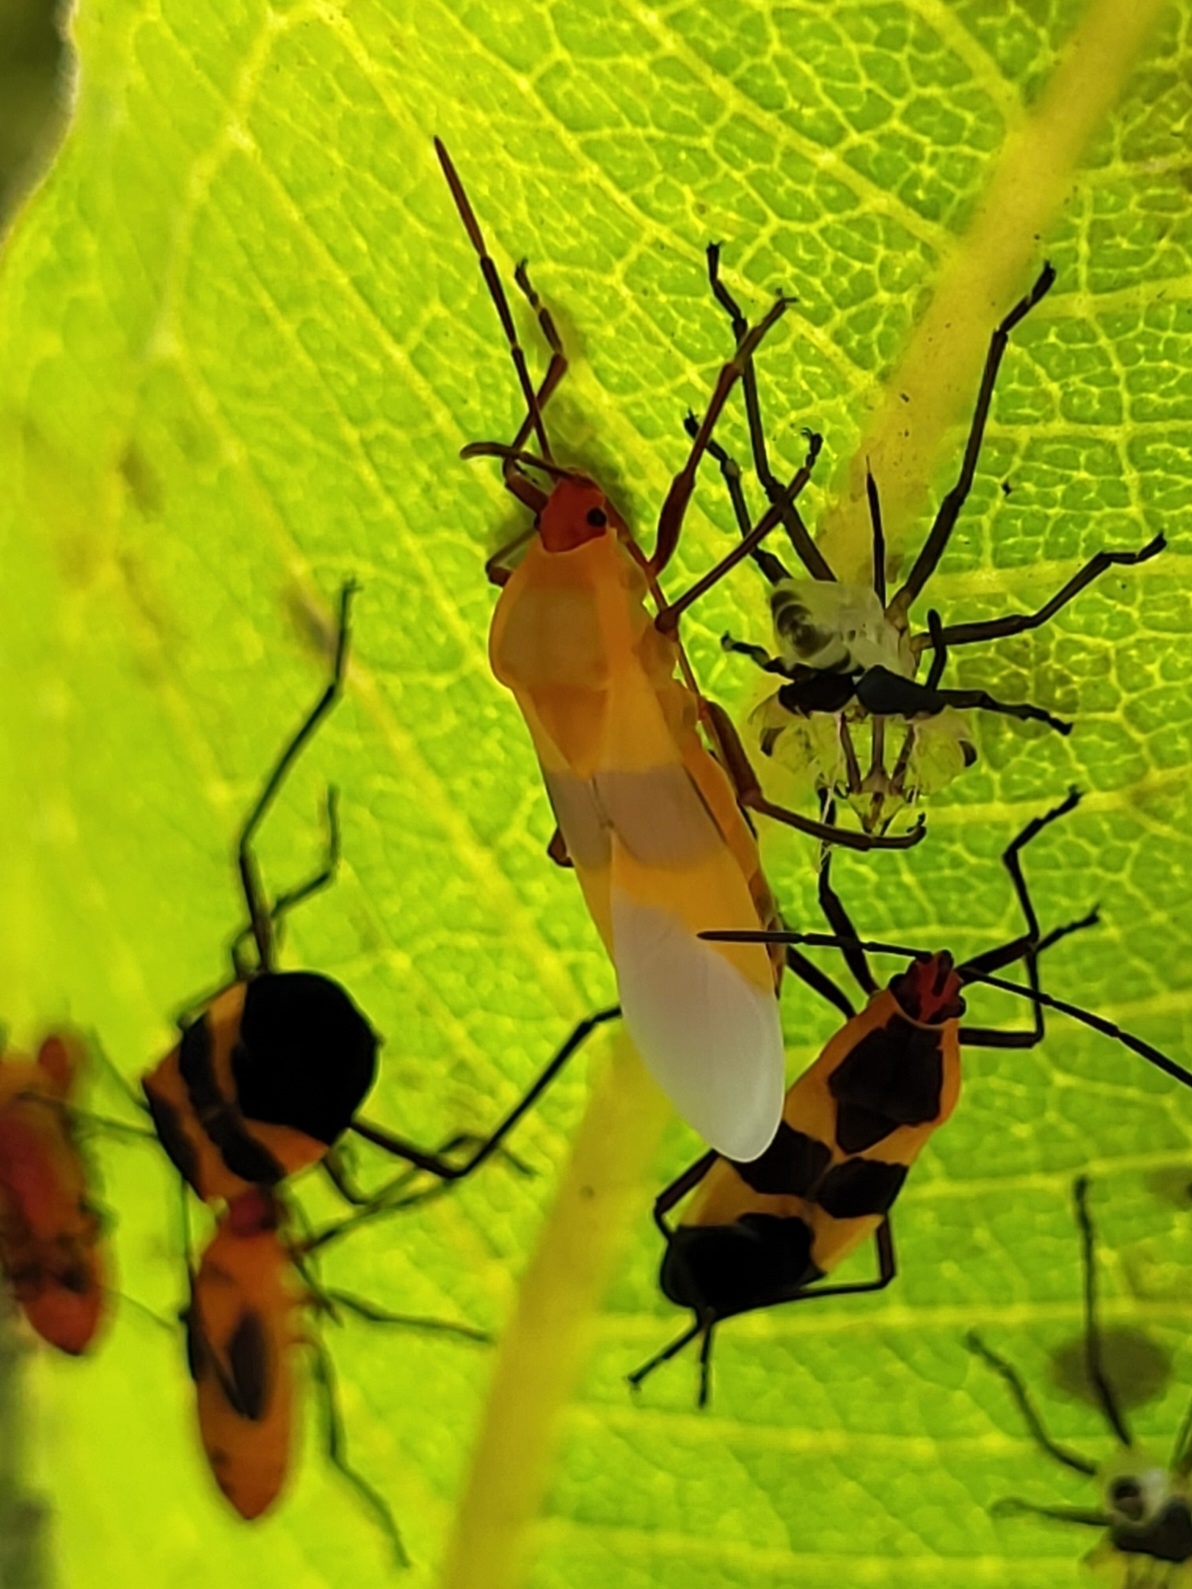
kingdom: Animalia
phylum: Arthropoda
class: Insecta
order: Hemiptera
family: Lygaeidae
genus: Oncopeltus
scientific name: Oncopeltus fasciatus
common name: Large milkweed bug
